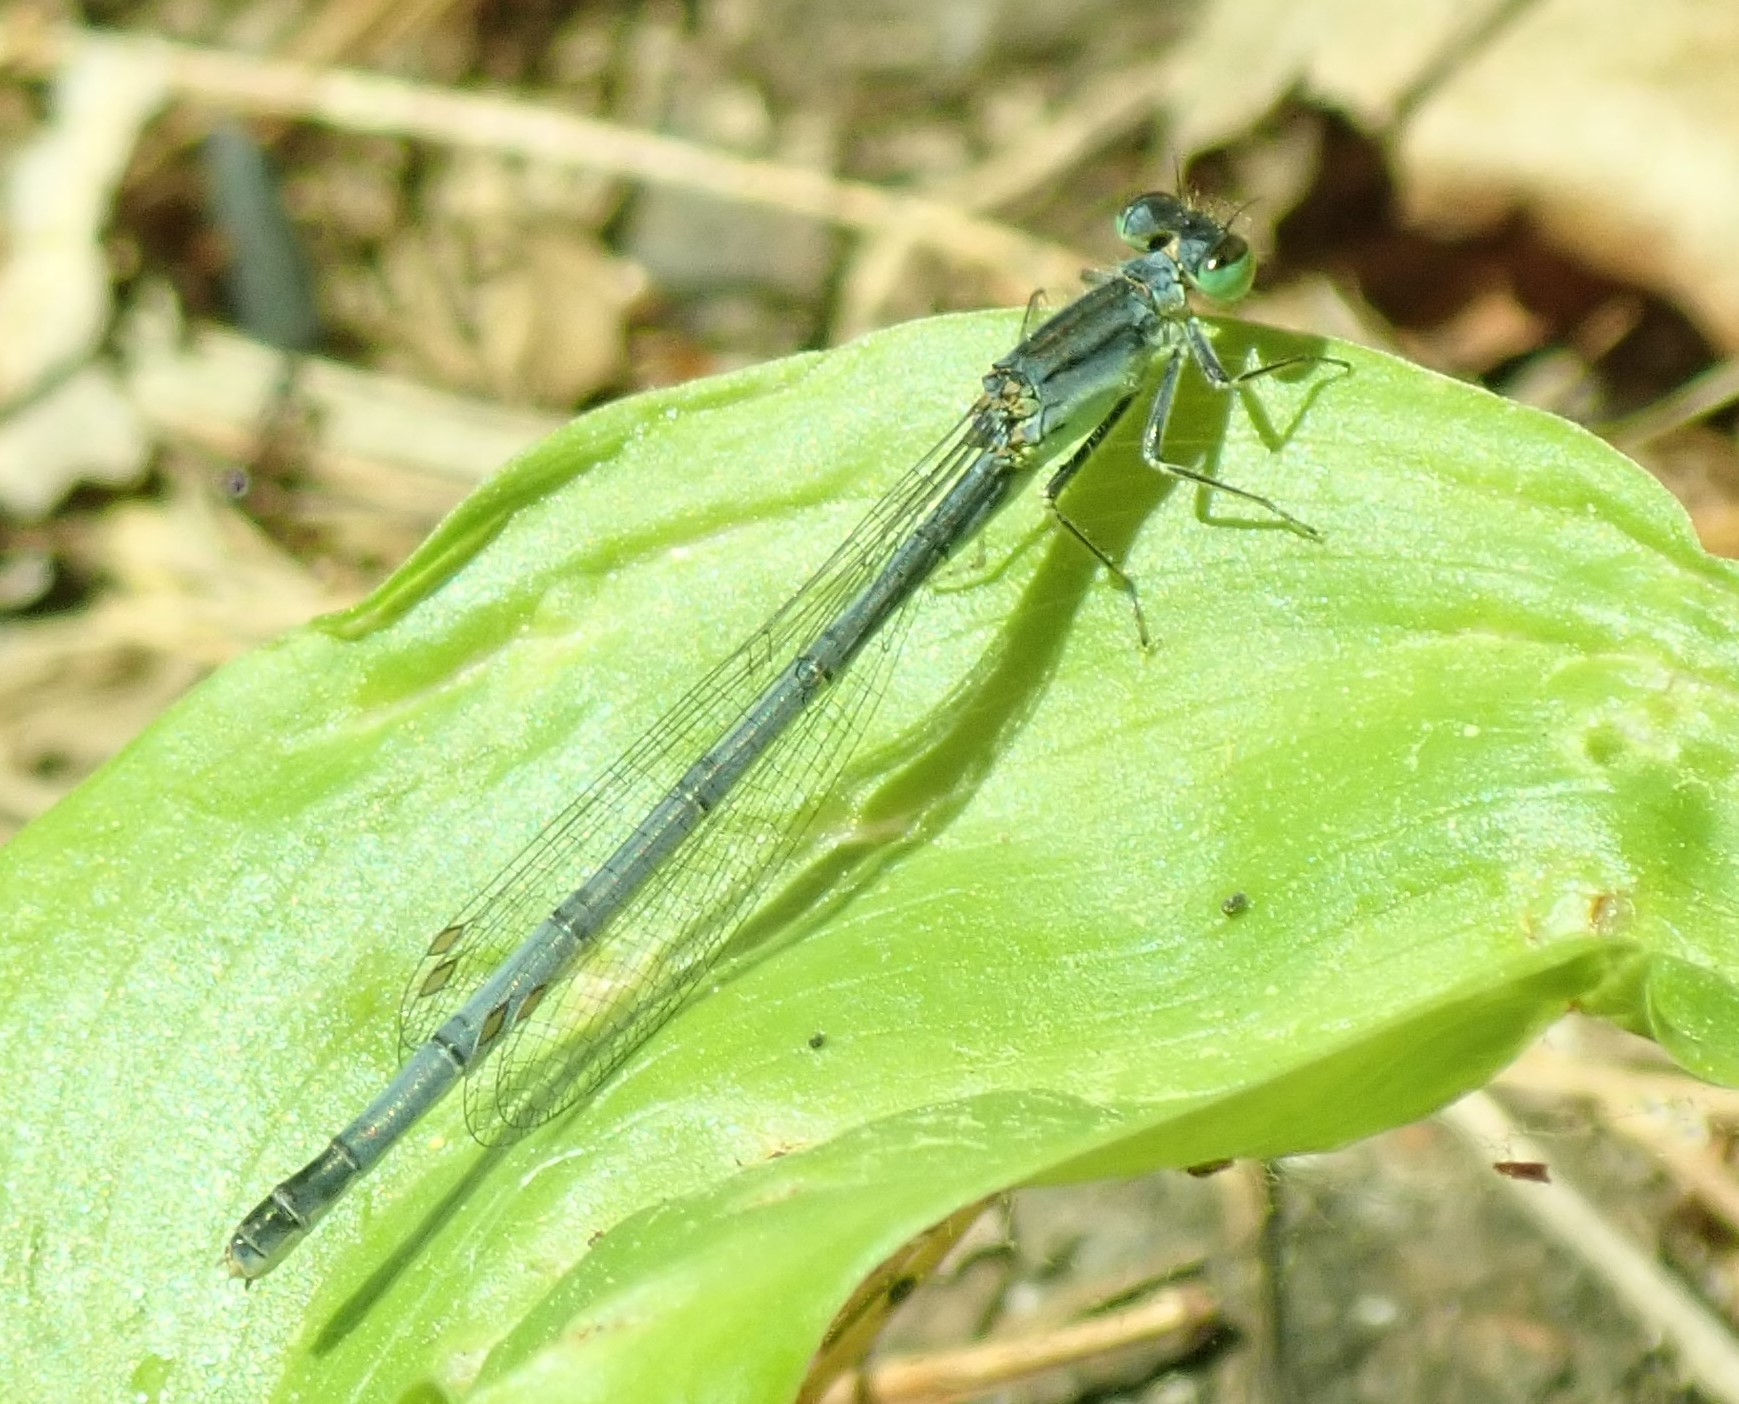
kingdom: Animalia
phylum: Arthropoda
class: Insecta
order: Odonata
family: Coenagrionidae
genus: Ischnura
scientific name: Ischnura verticalis
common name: Eastern forktail
